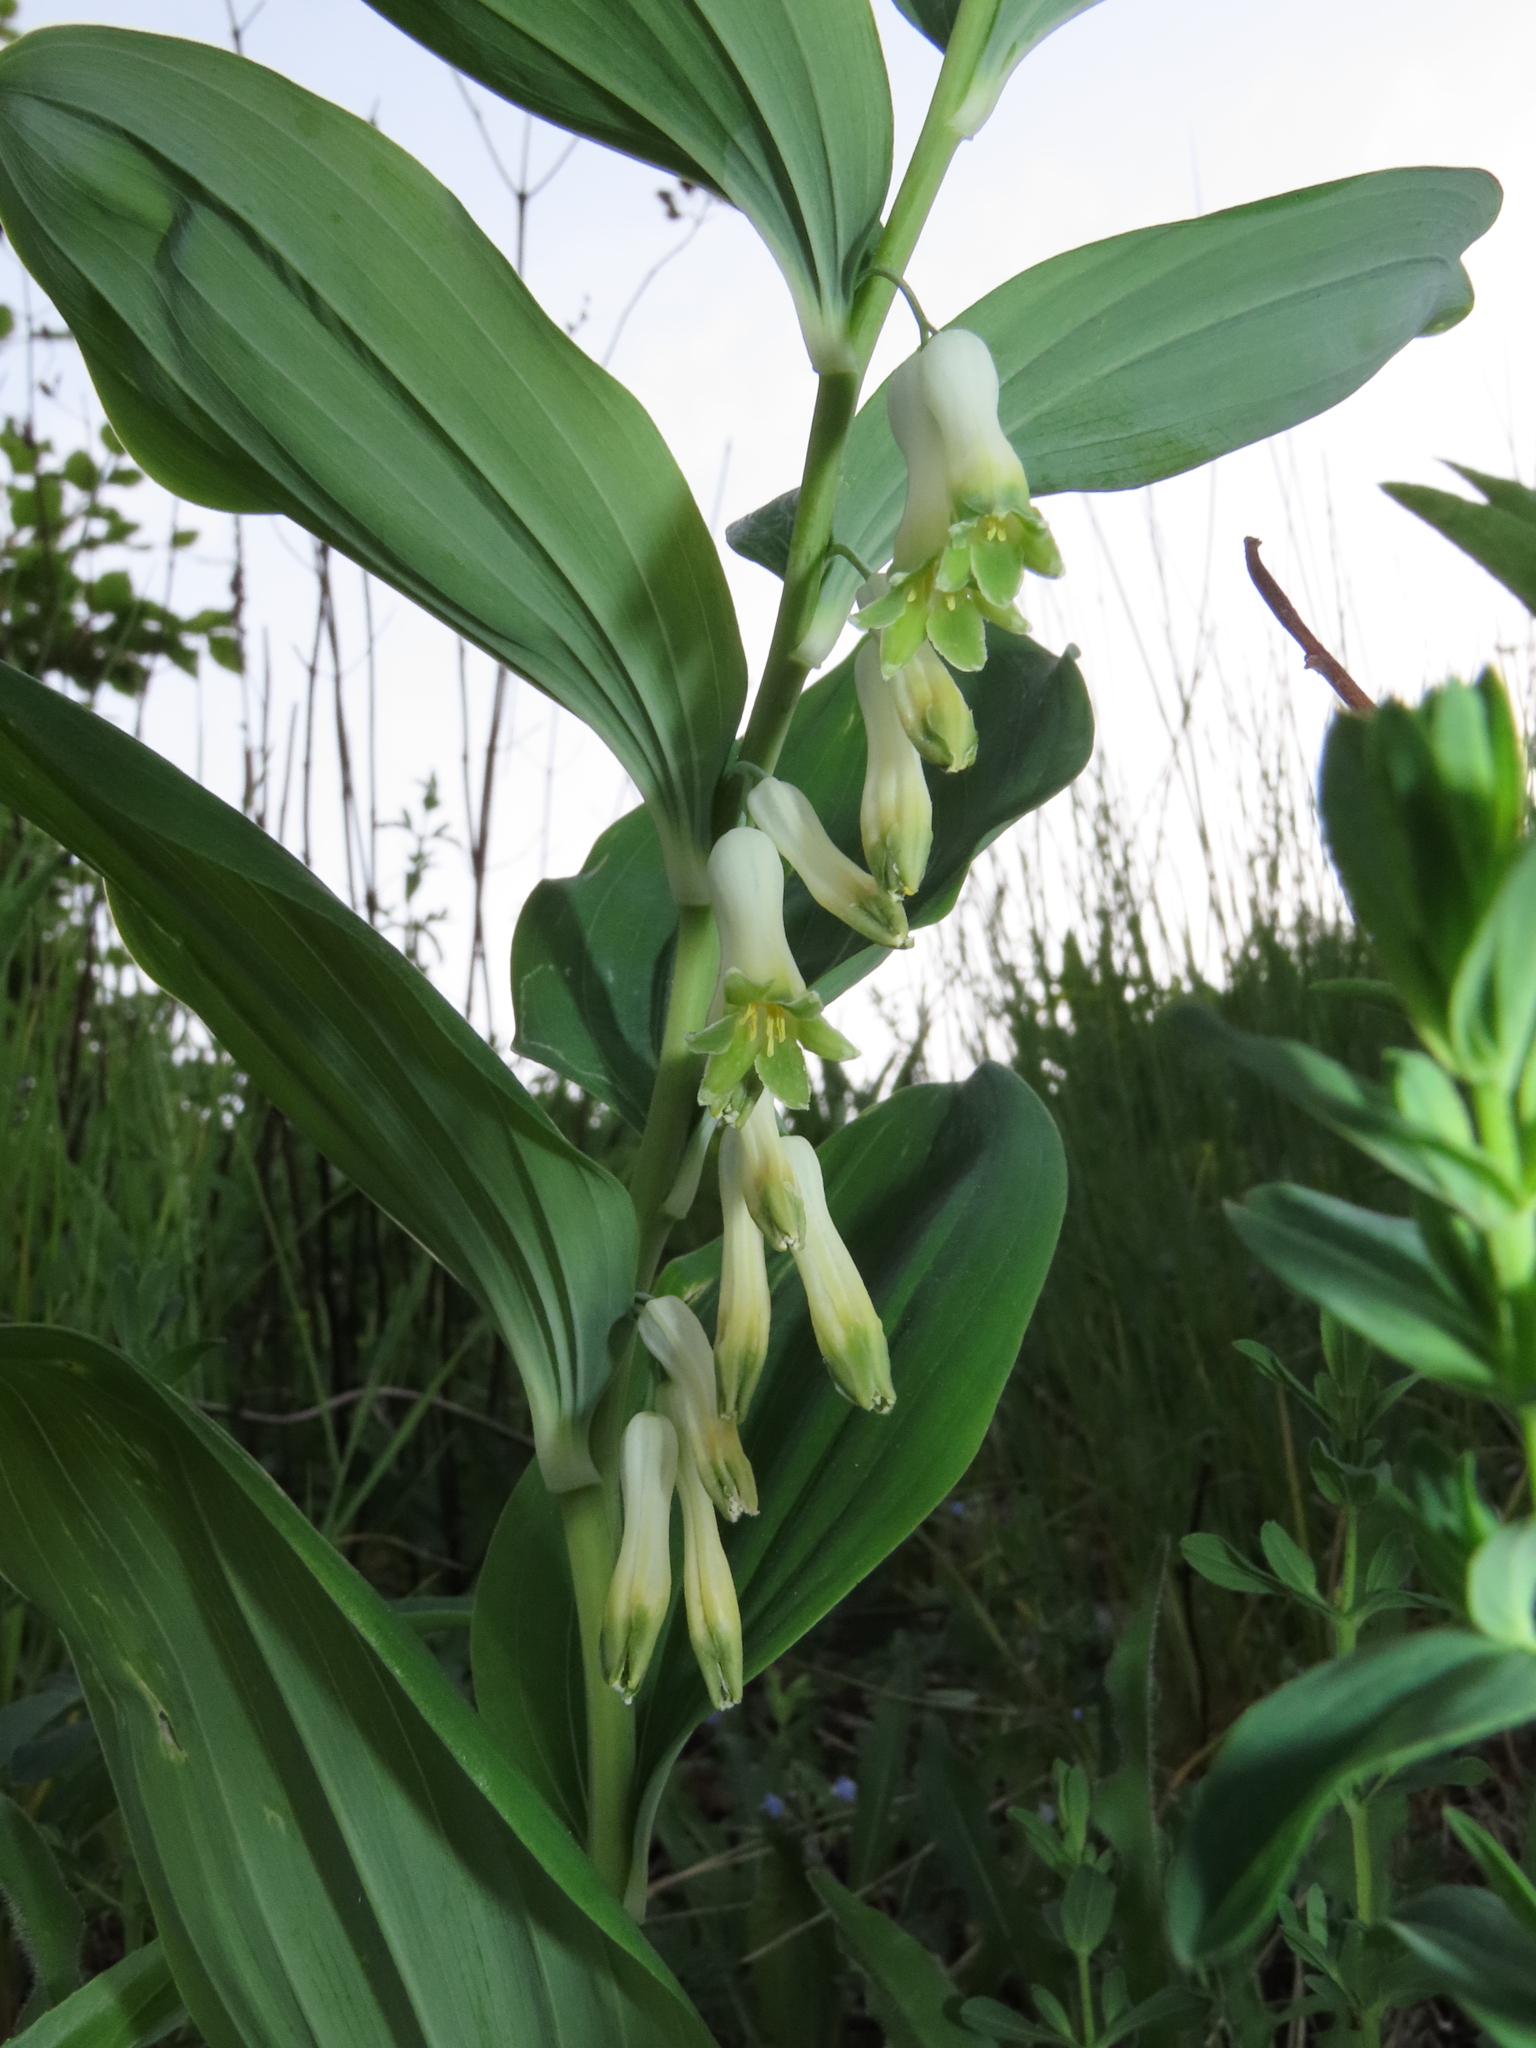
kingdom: Plantae
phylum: Tracheophyta
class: Liliopsida
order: Asparagales
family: Asparagaceae
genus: Polygonatum
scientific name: Polygonatum multiflorum
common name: Solomon's-seal
